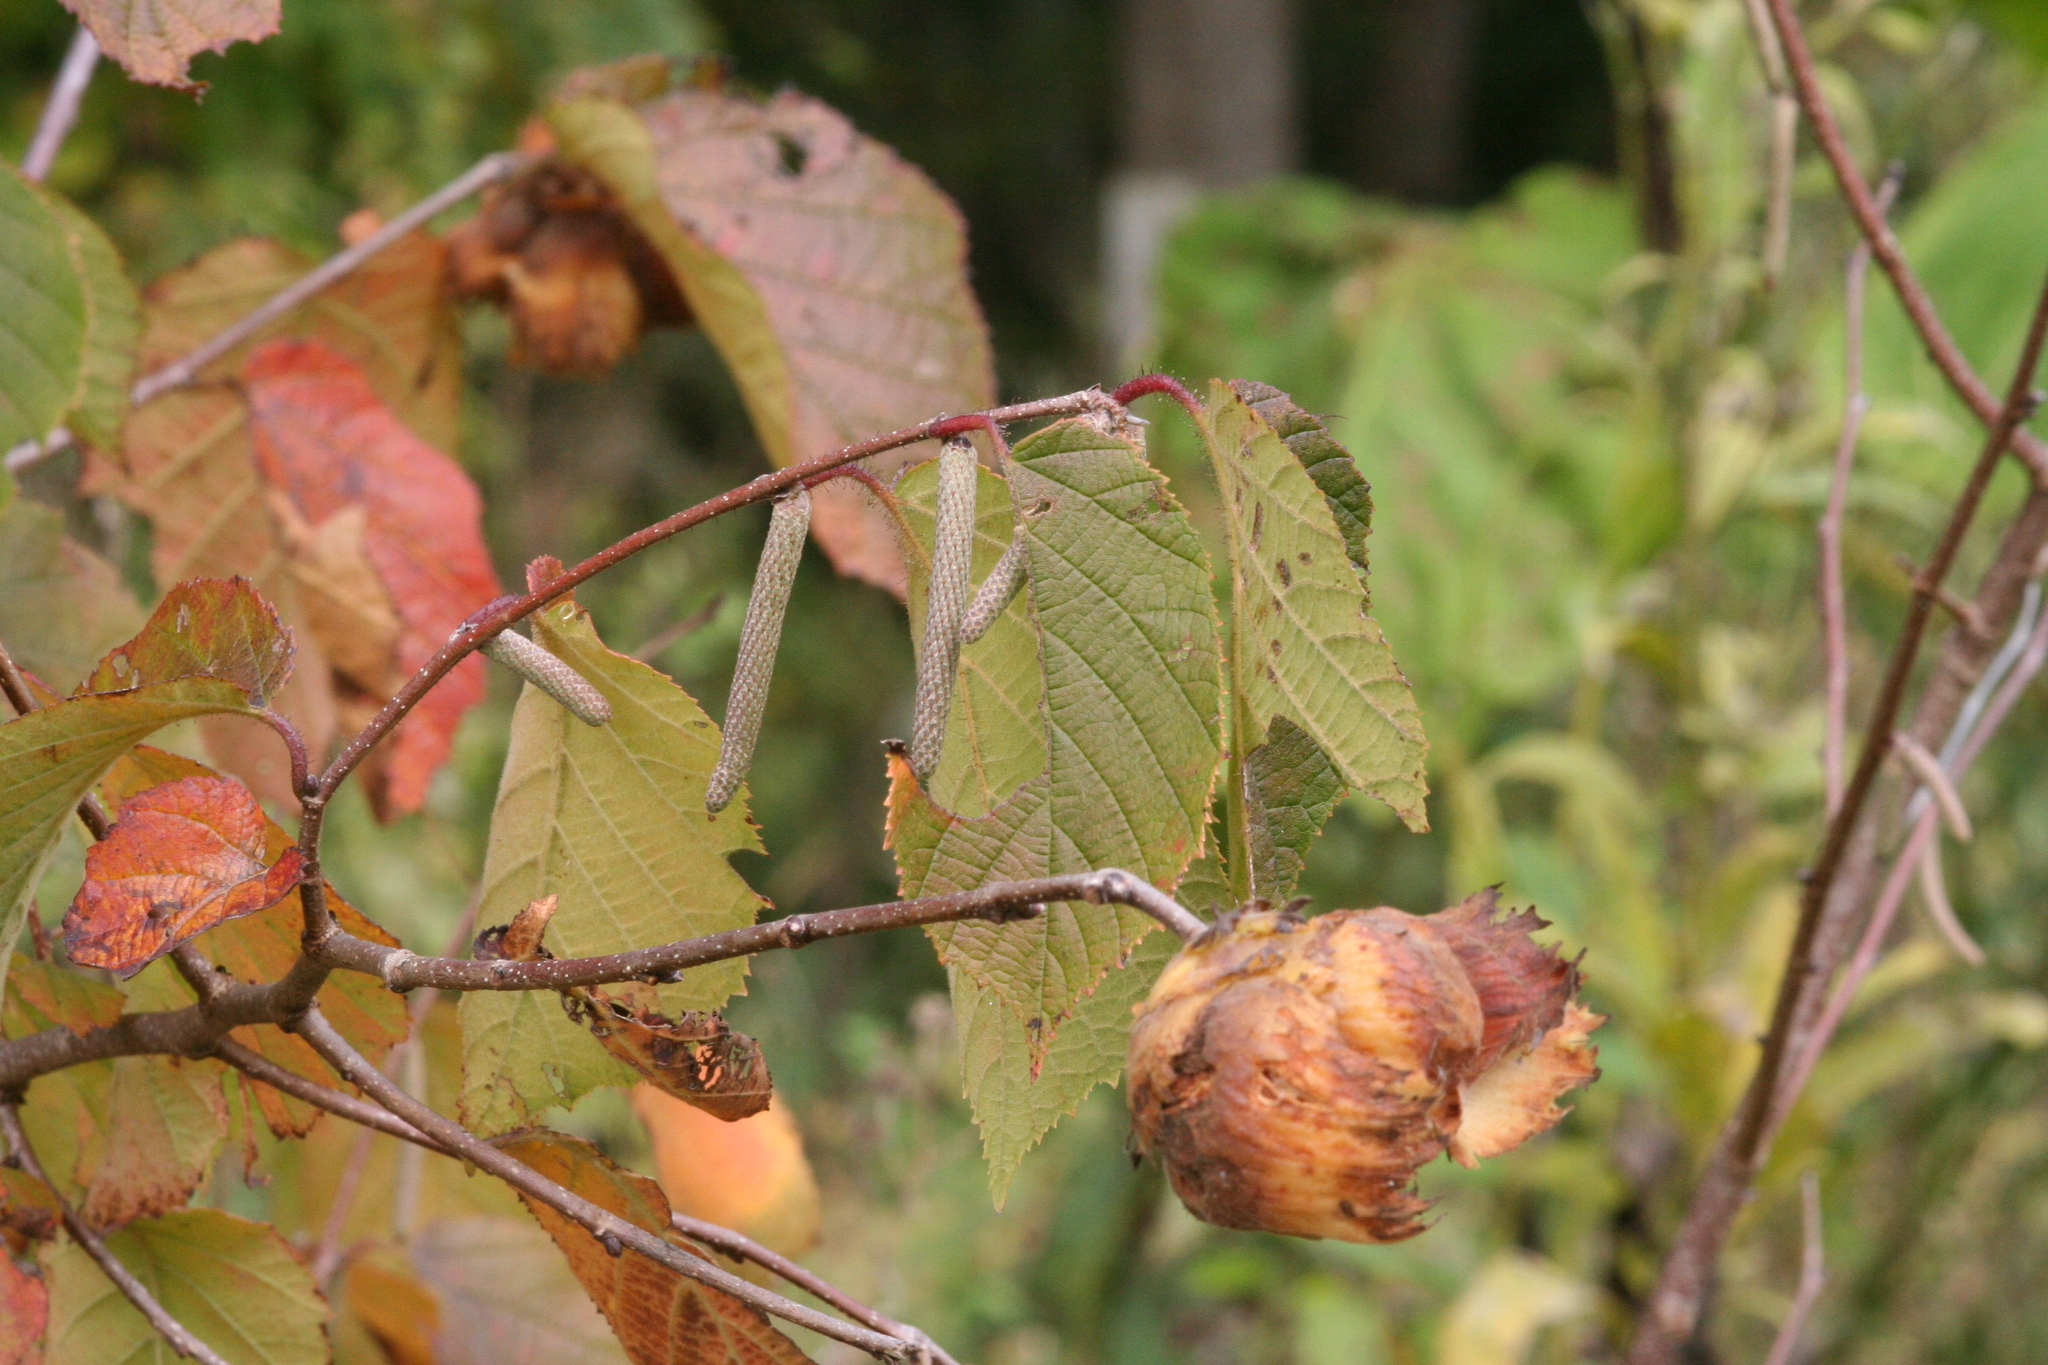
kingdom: Plantae
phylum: Tracheophyta
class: Magnoliopsida
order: Fagales
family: Betulaceae
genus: Corylus
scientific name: Corylus americana
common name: American hazel
